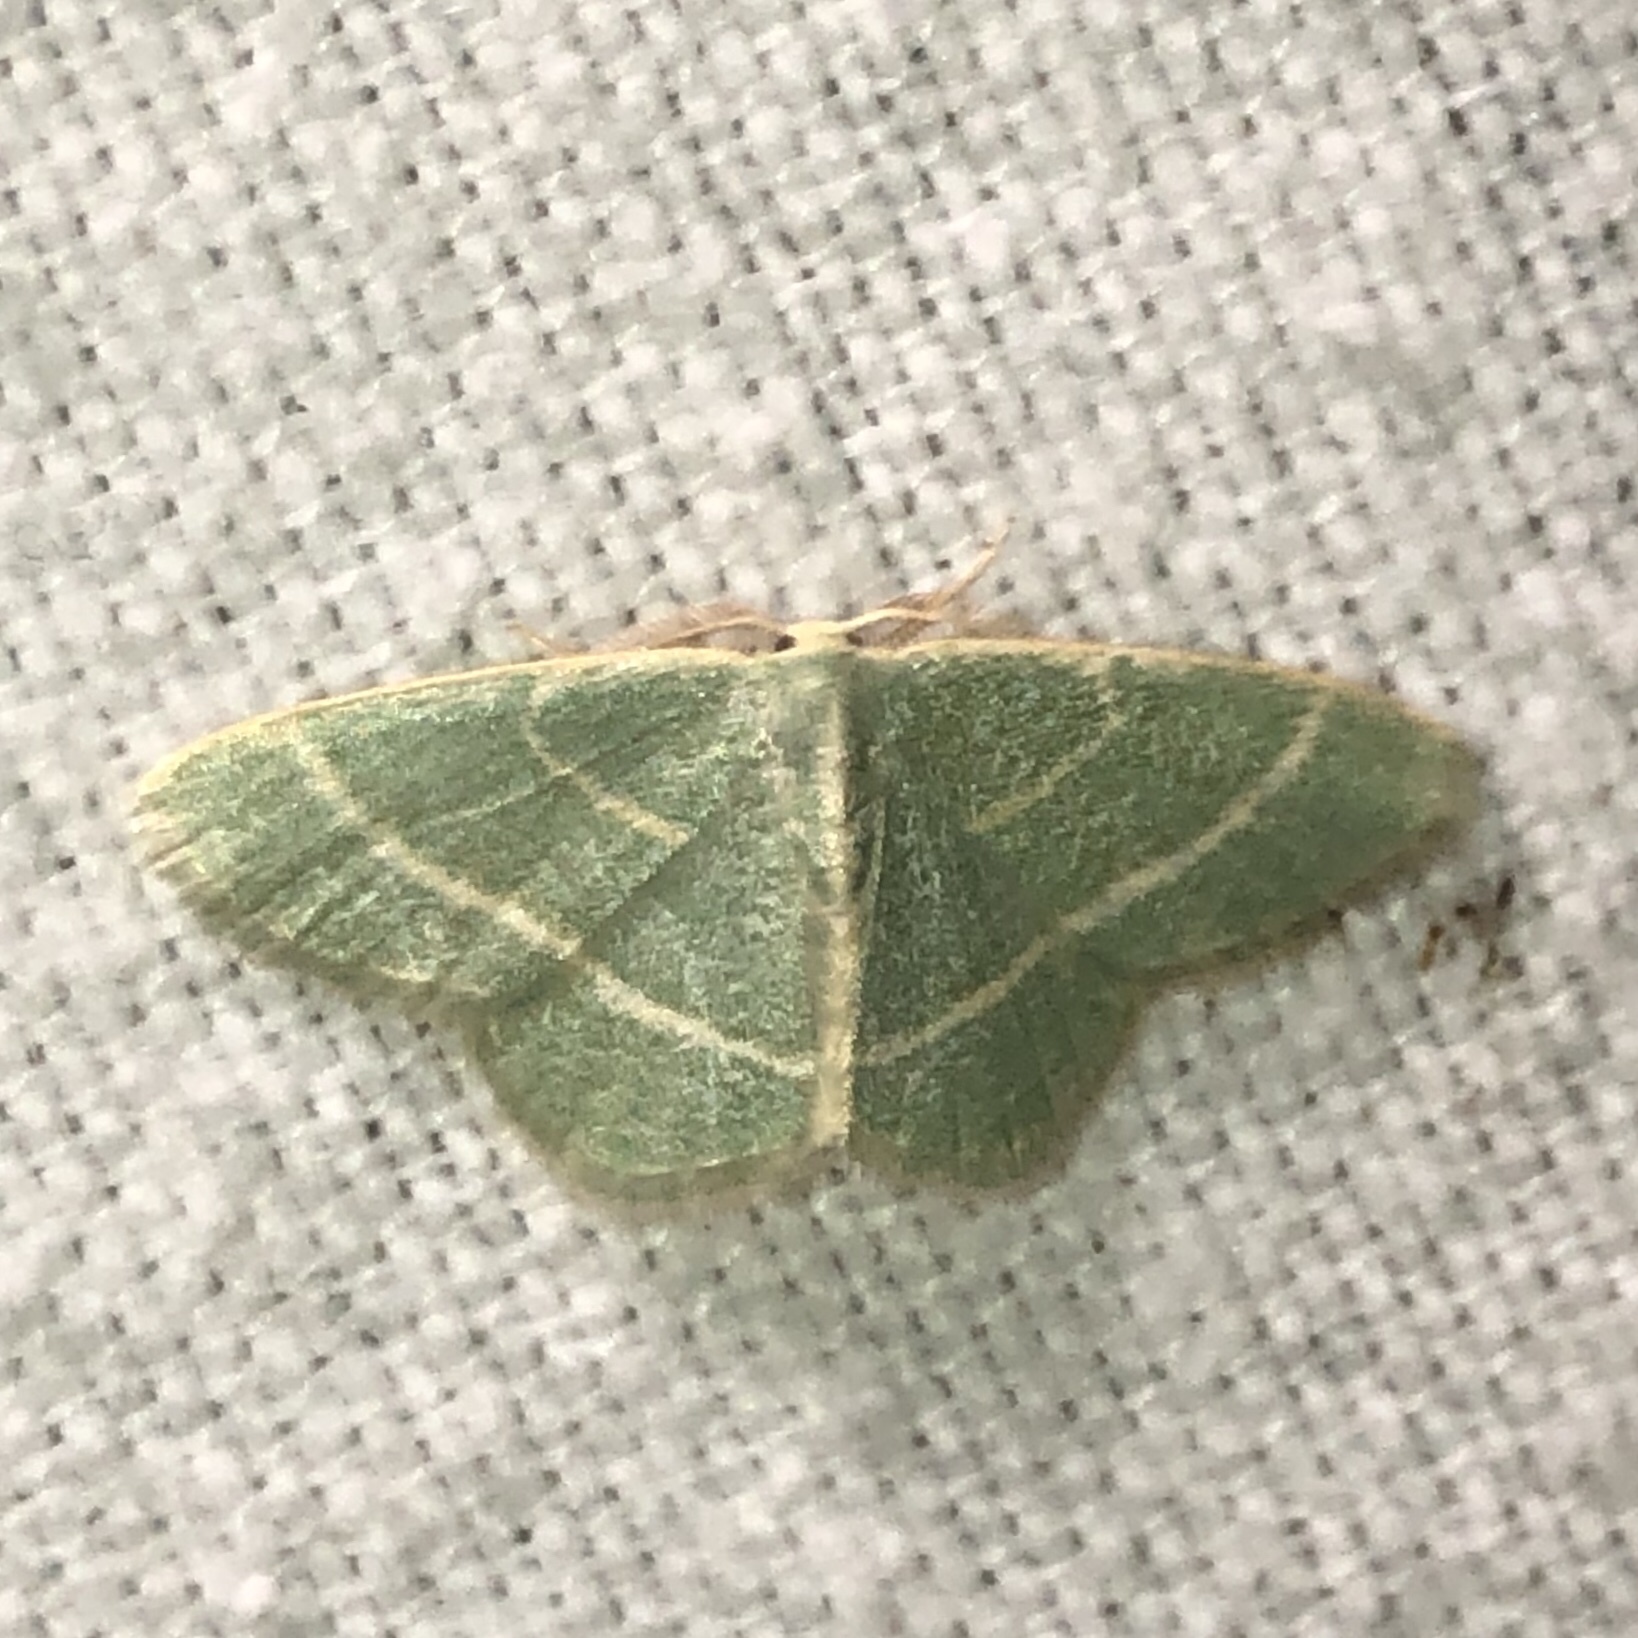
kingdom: Animalia
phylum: Arthropoda
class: Insecta
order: Lepidoptera
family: Geometridae
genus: Chlorochlamys
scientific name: Chlorochlamys chloroleucaria
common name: Blackberry looper
